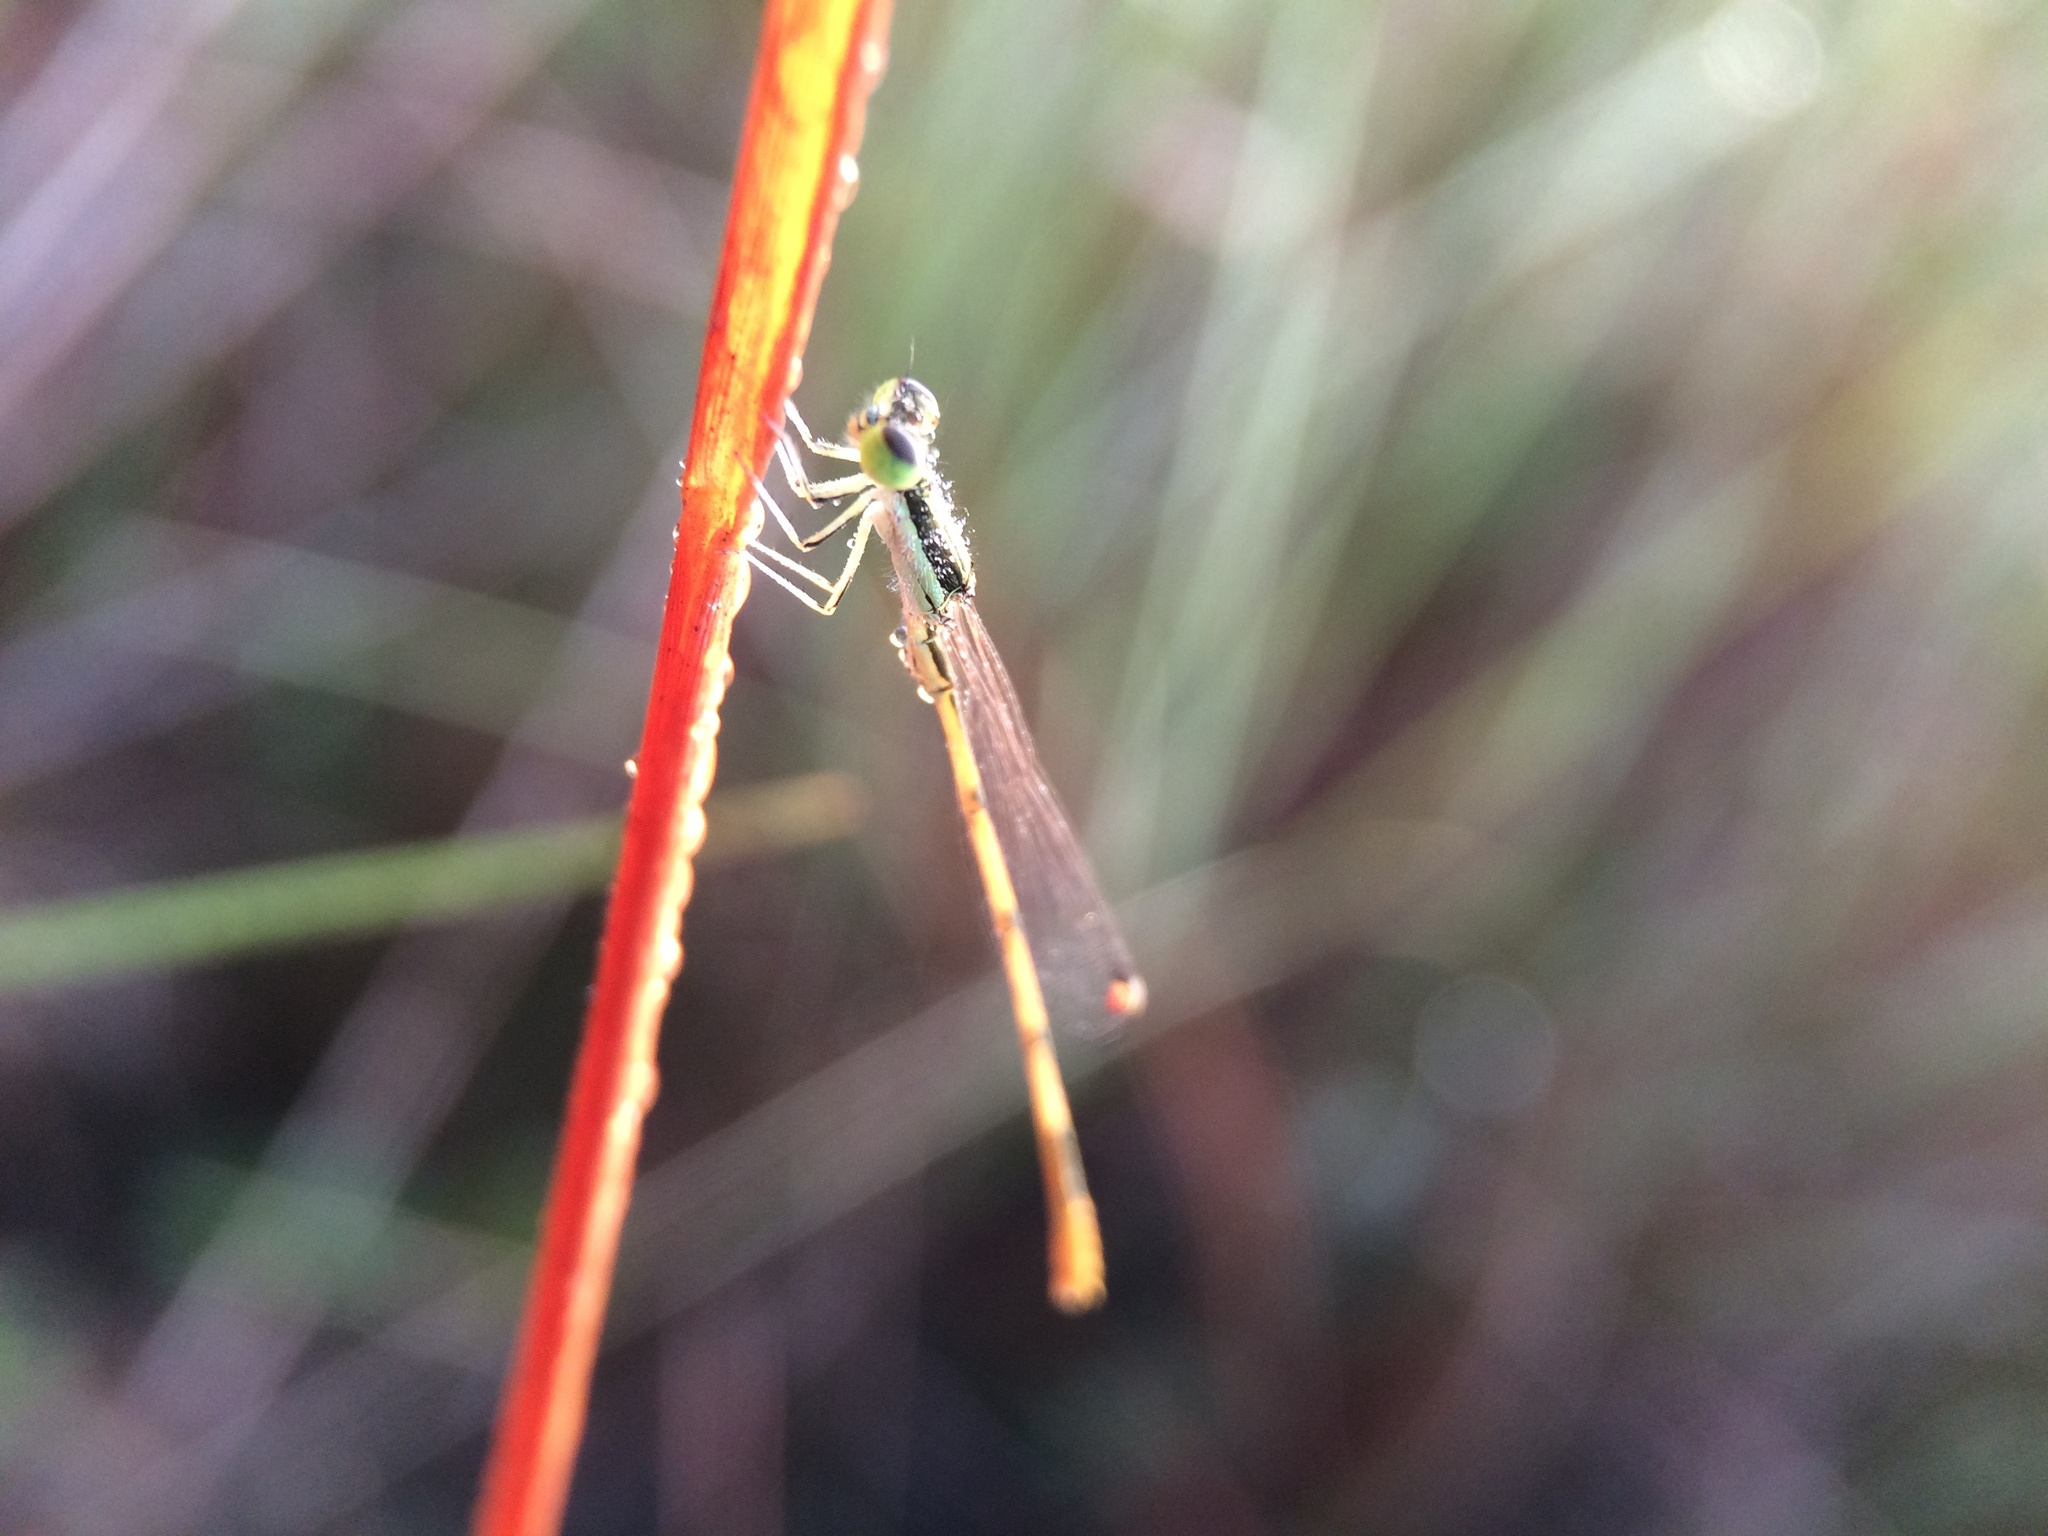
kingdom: Animalia
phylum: Arthropoda
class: Insecta
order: Odonata
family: Coenagrionidae
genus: Ischnura
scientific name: Ischnura hastata
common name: Citrine forktail
